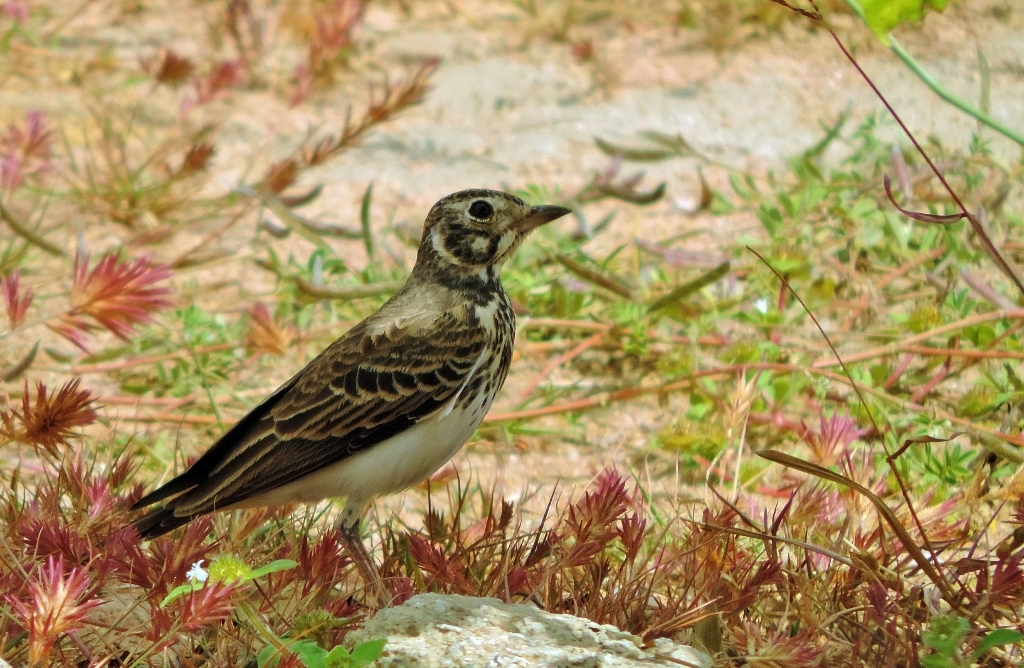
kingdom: Animalia
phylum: Chordata
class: Aves
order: Passeriformes
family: Alaudidae
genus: Pinarocorys
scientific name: Pinarocorys nigricans
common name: Dusky lark
